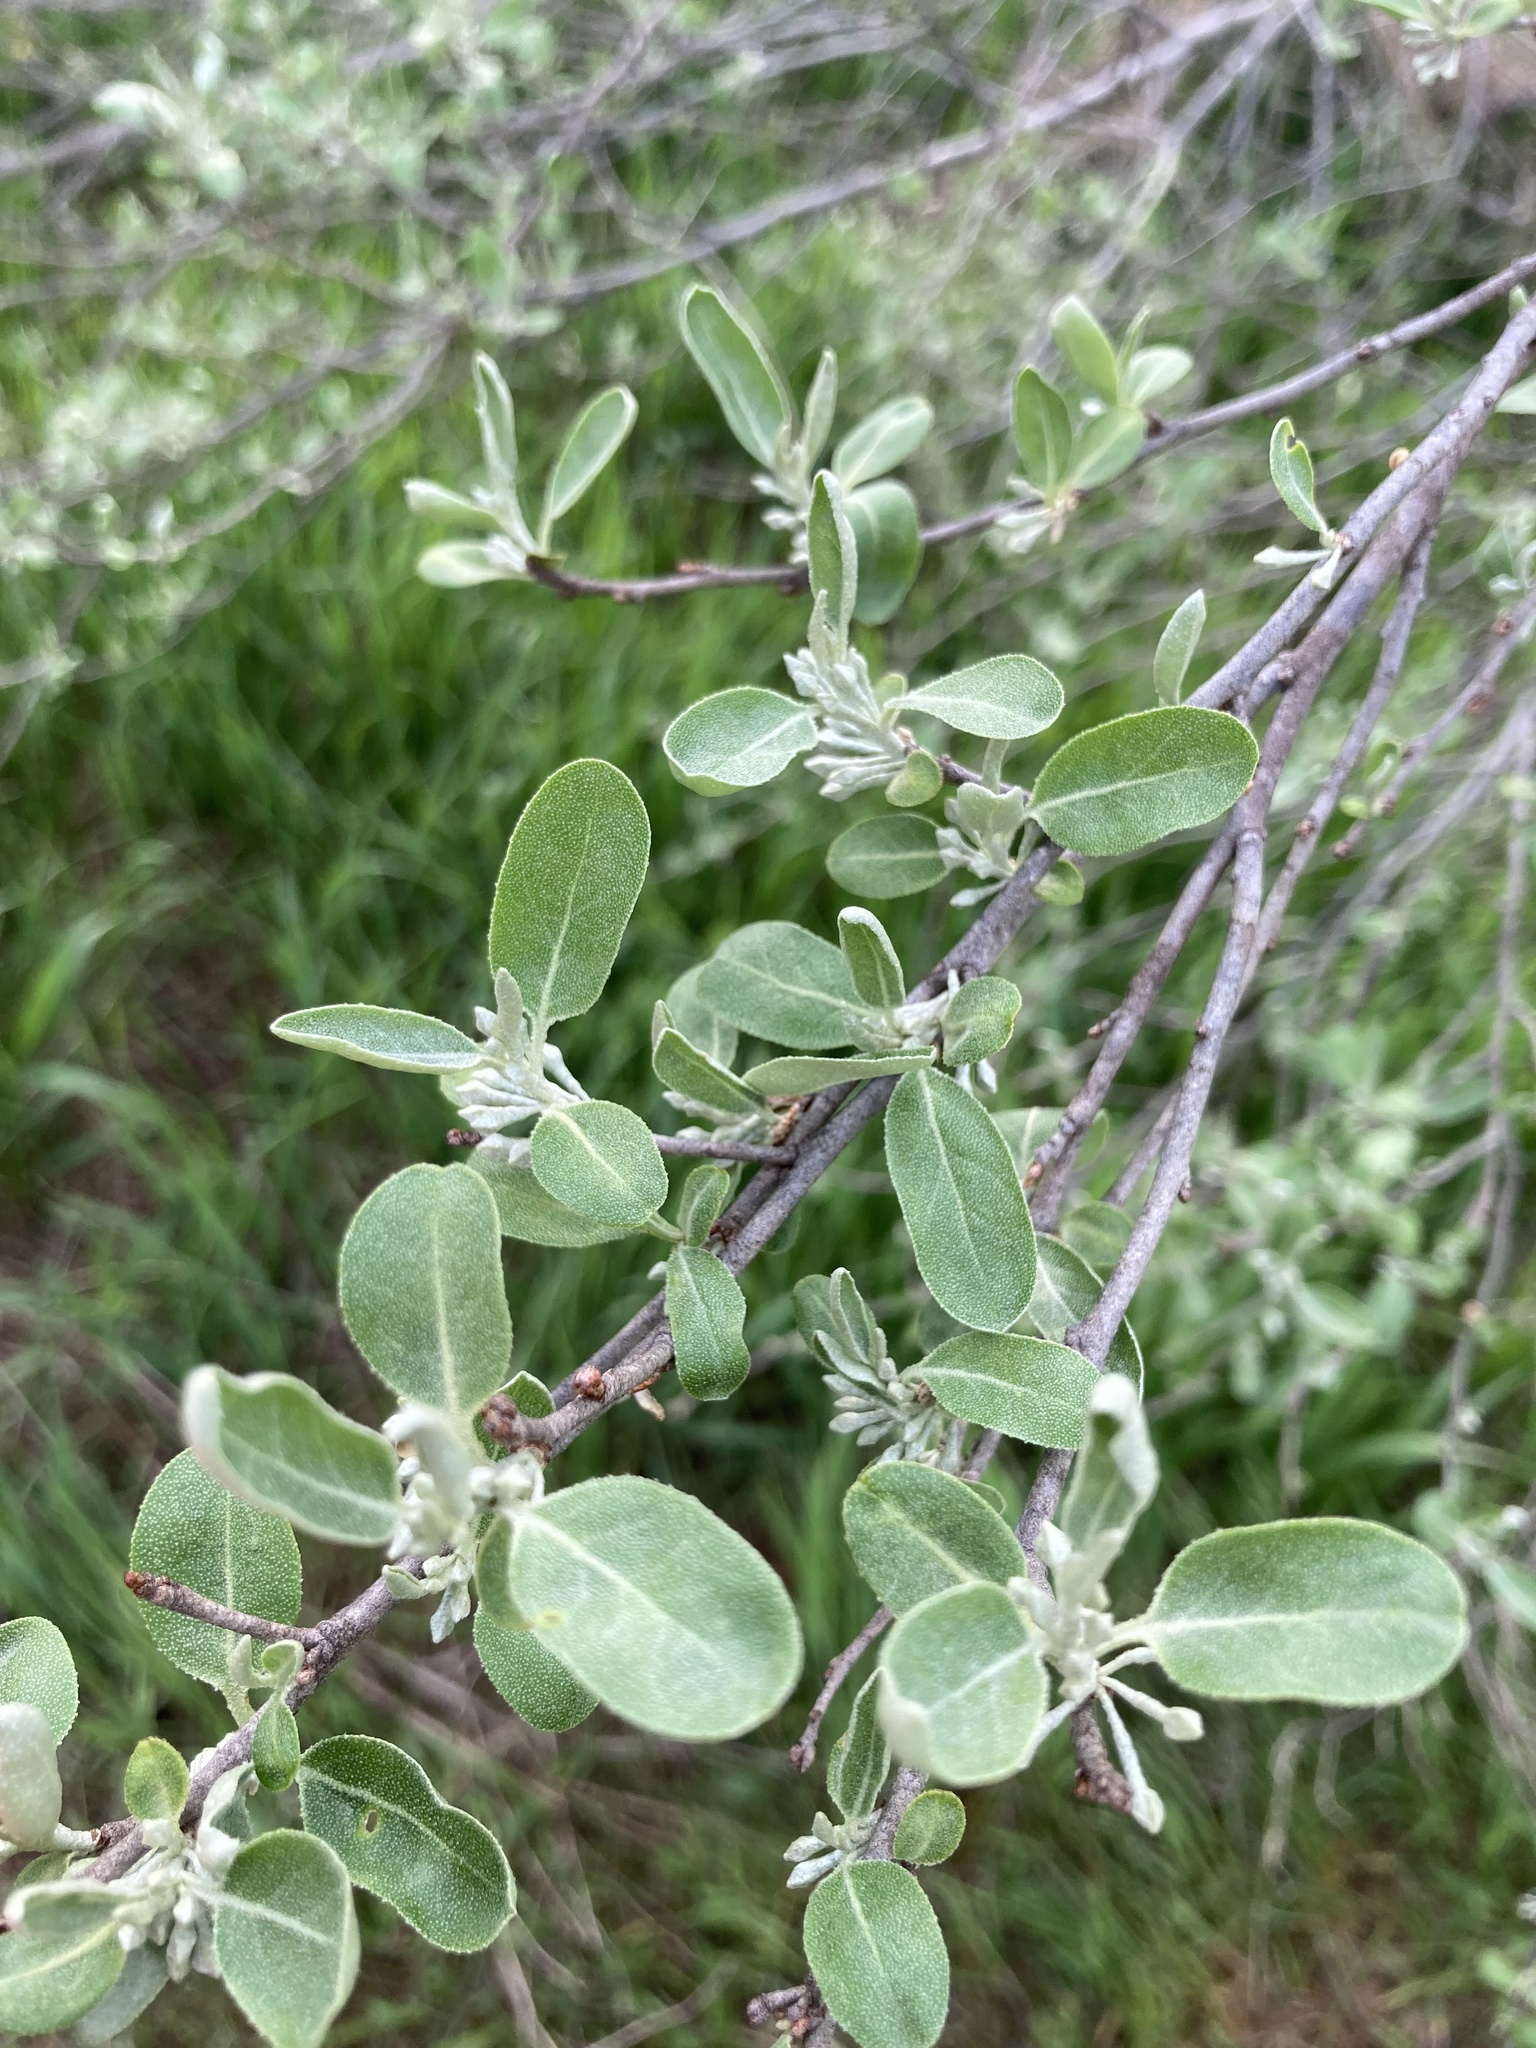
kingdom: Plantae
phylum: Tracheophyta
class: Magnoliopsida
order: Rosales
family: Elaeagnaceae
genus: Elaeagnus
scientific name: Elaeagnus umbellata
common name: Autumn olive
